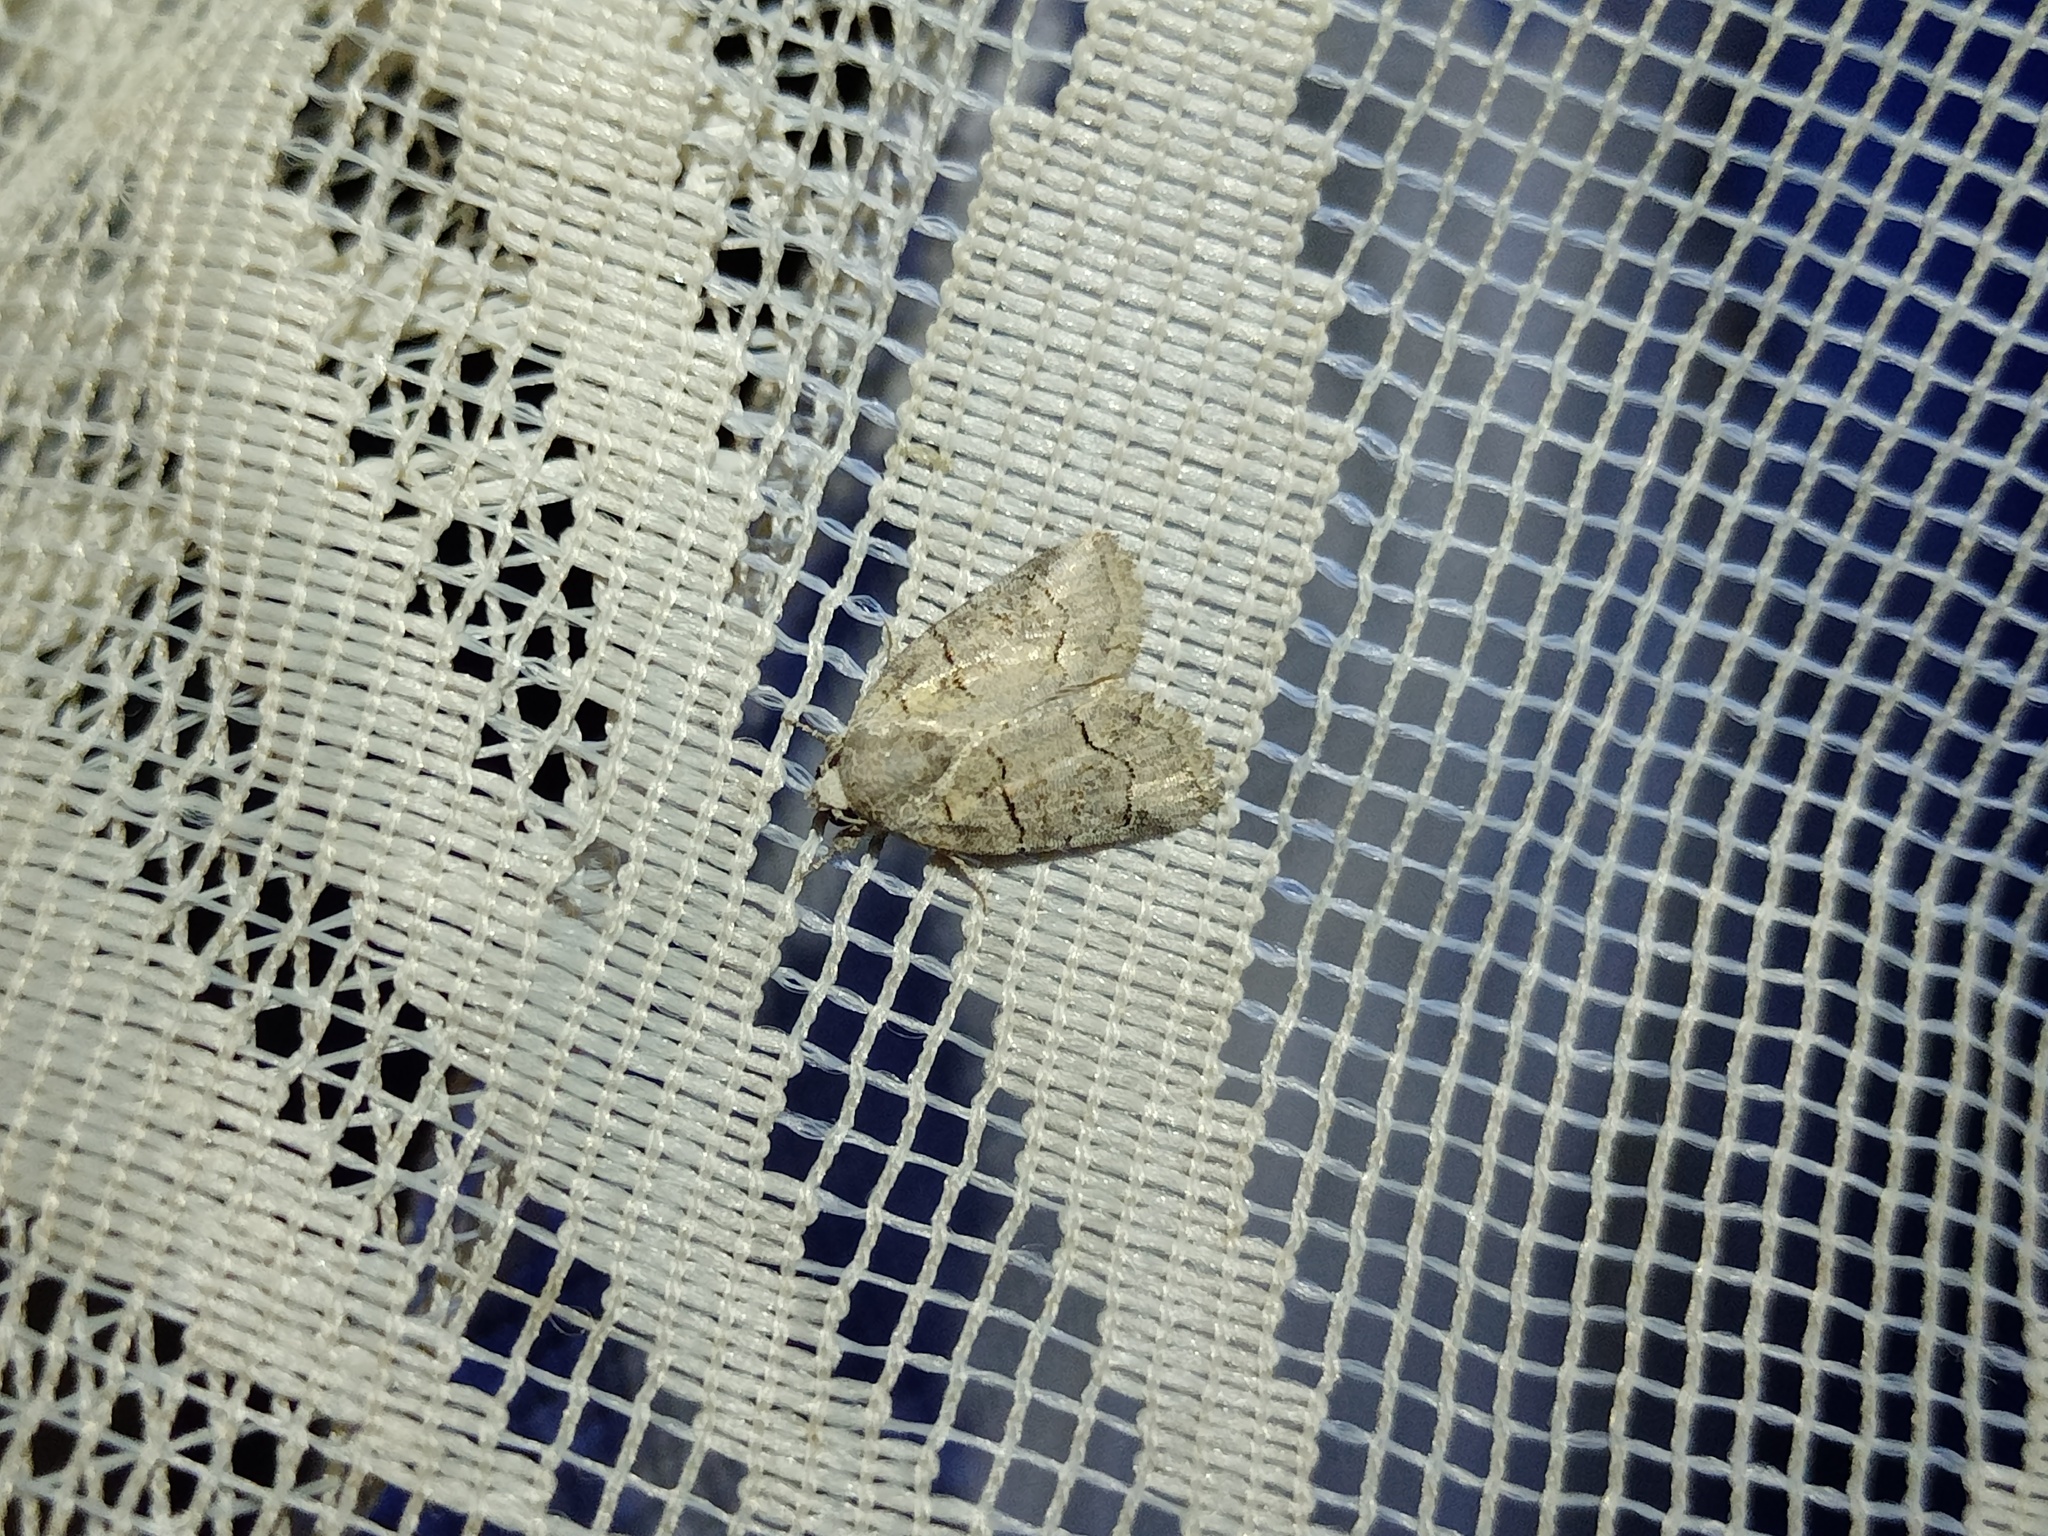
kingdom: Animalia
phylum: Arthropoda
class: Insecta
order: Lepidoptera
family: Noctuidae
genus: Bryophila
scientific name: Bryophila microphysa
